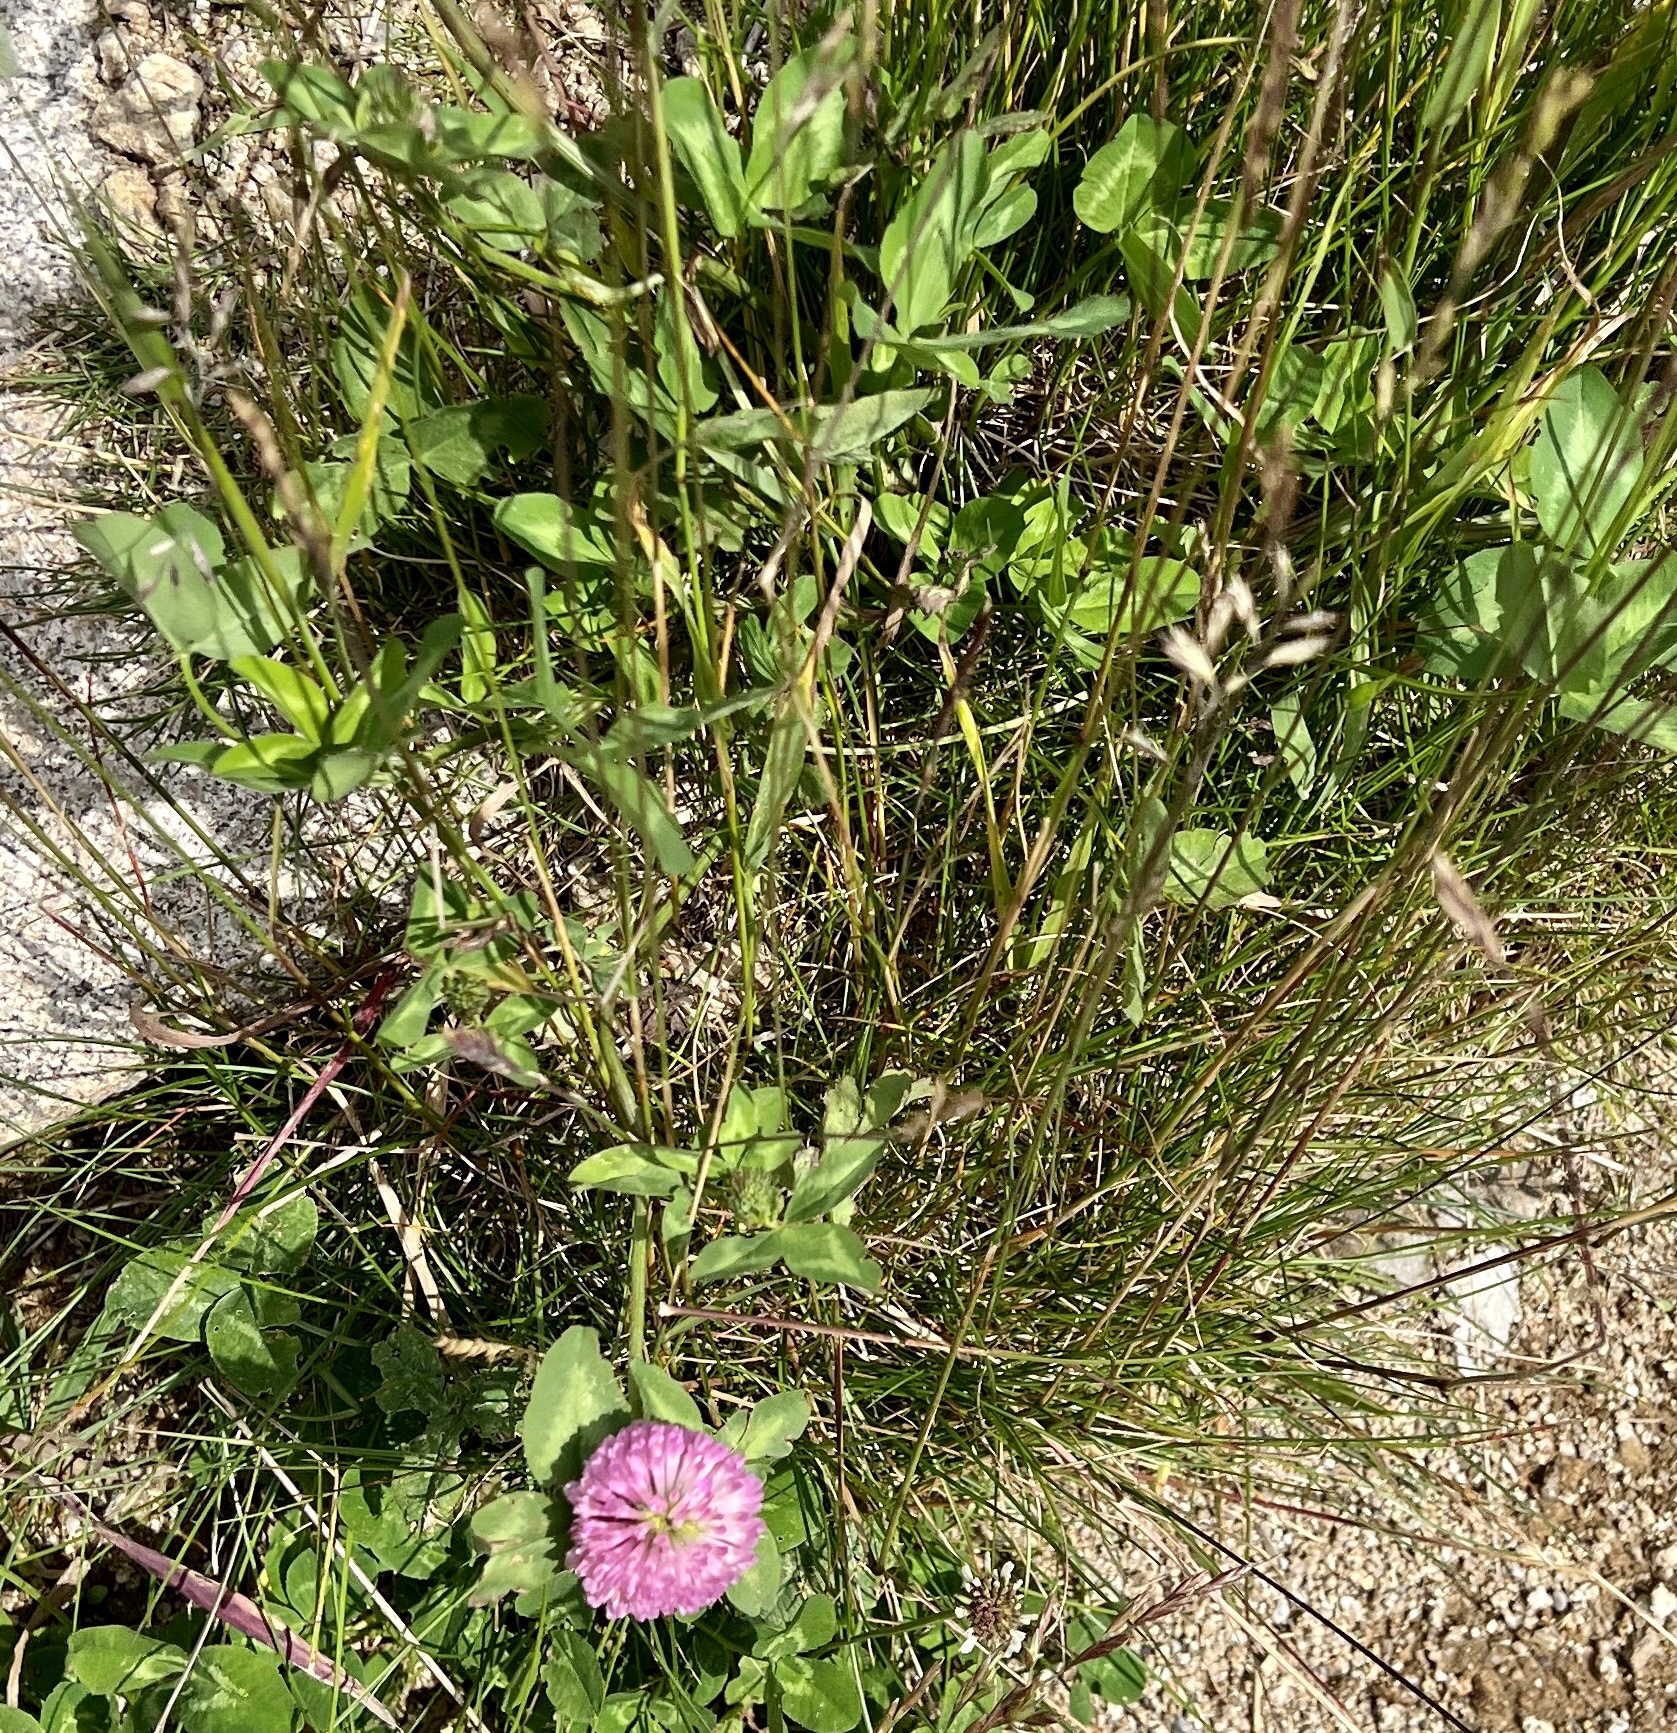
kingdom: Plantae
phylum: Tracheophyta
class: Magnoliopsida
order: Fabales
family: Fabaceae
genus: Trifolium
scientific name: Trifolium pratense
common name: Red clover
